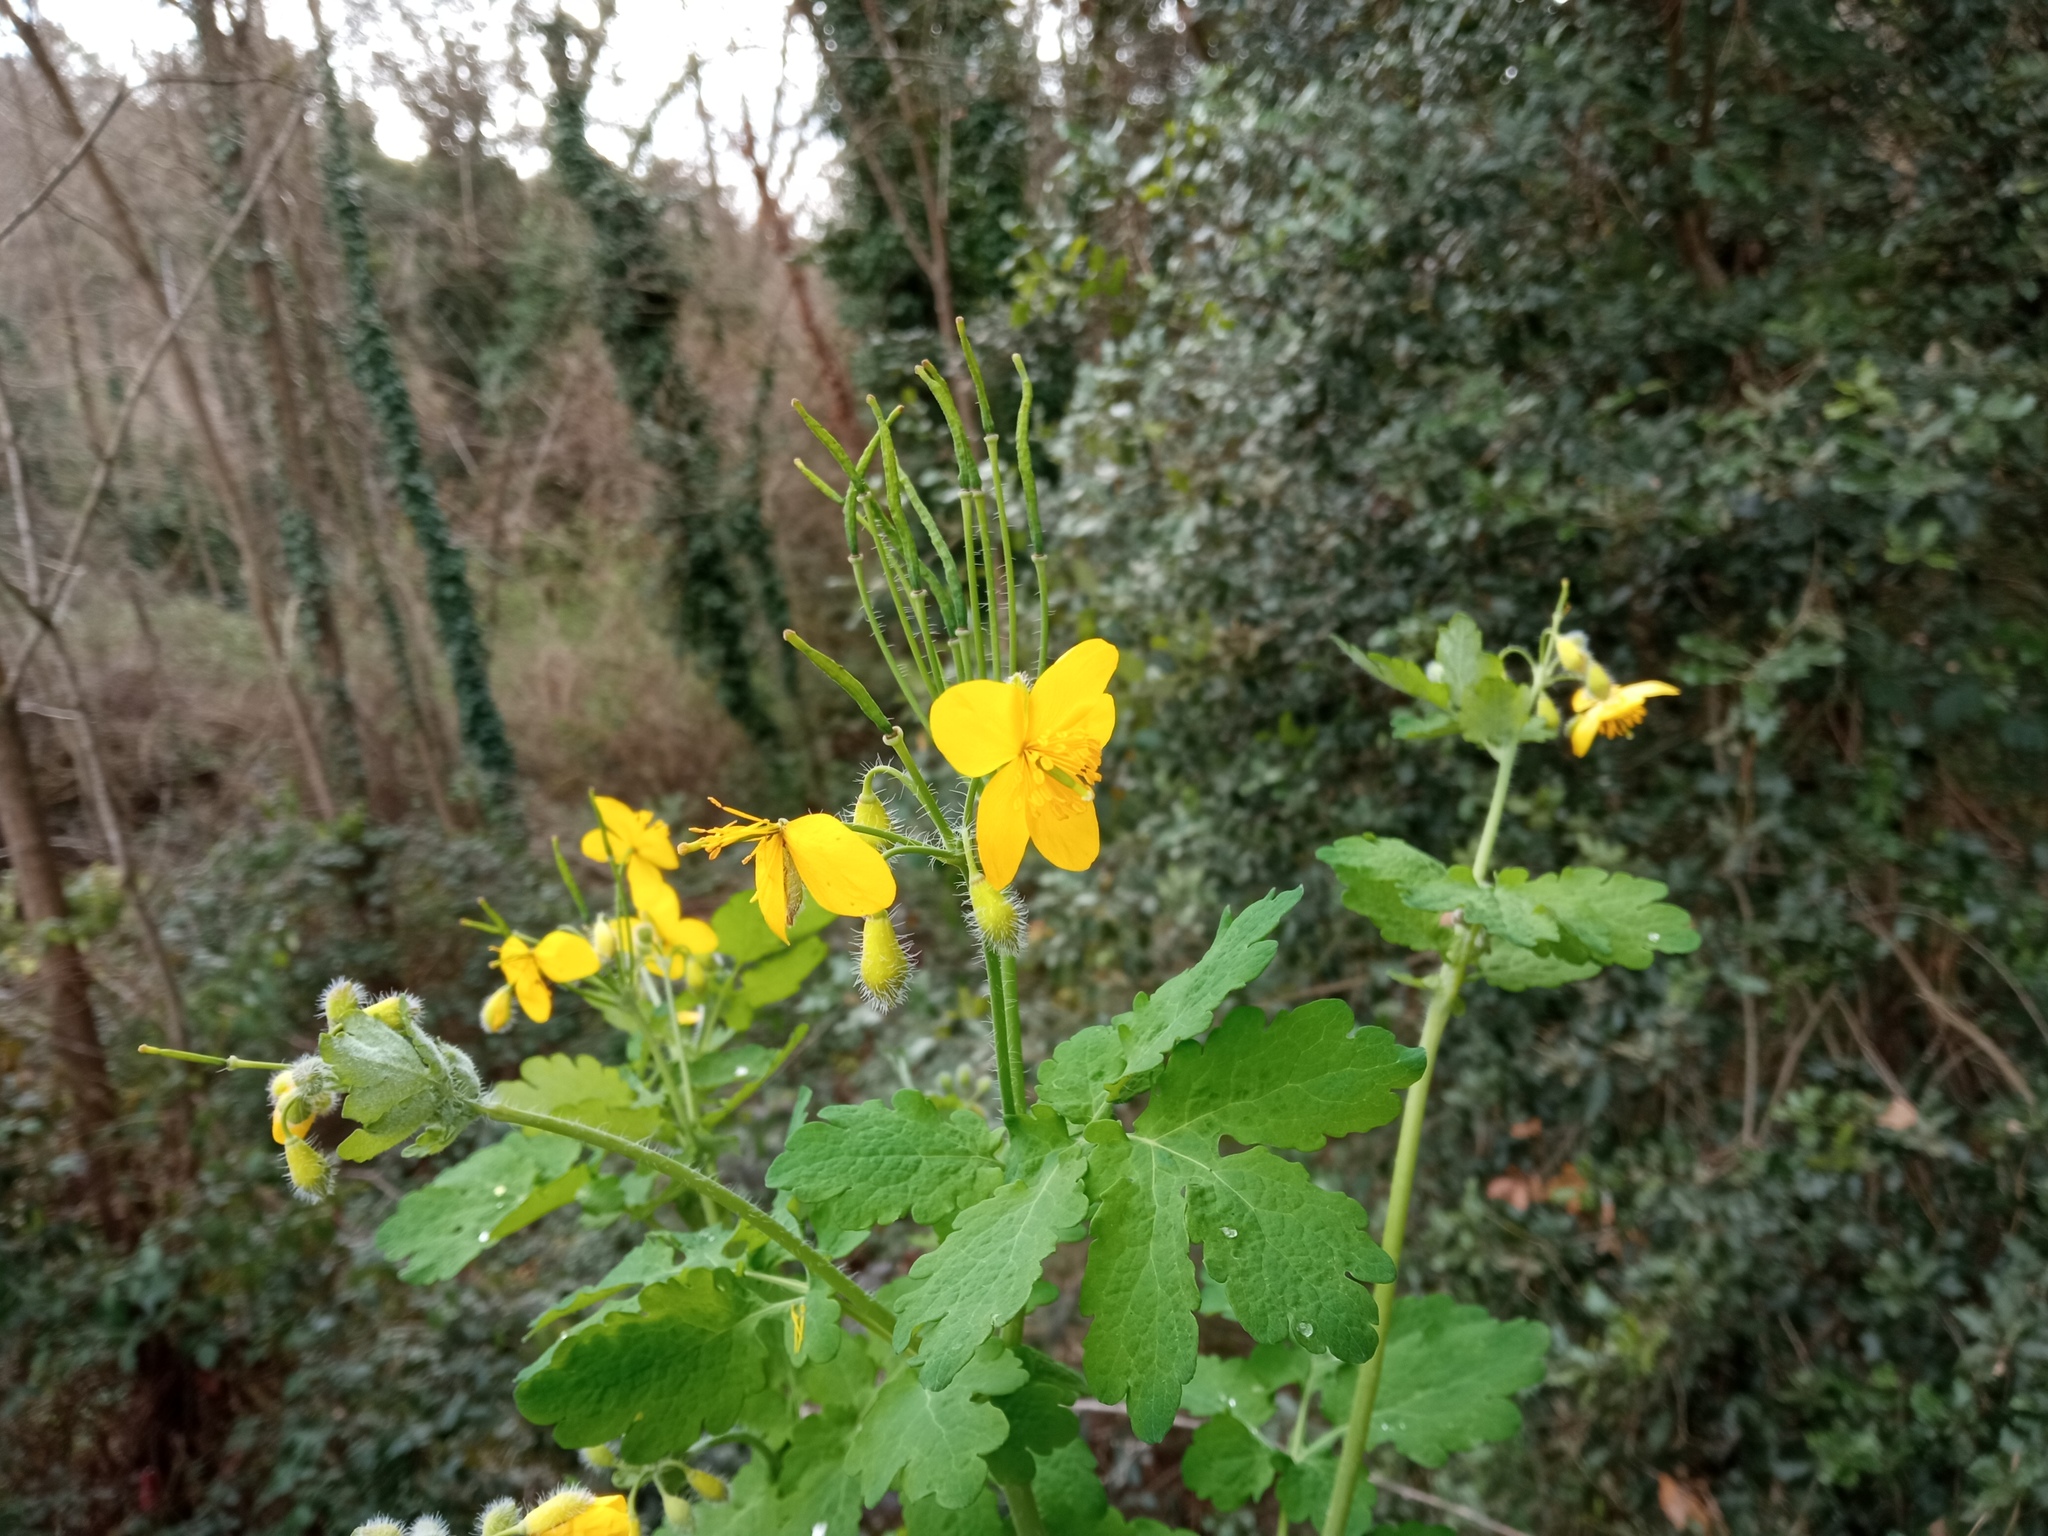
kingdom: Plantae
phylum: Tracheophyta
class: Magnoliopsida
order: Ranunculales
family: Papaveraceae
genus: Chelidonium
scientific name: Chelidonium majus
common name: Greater celandine
